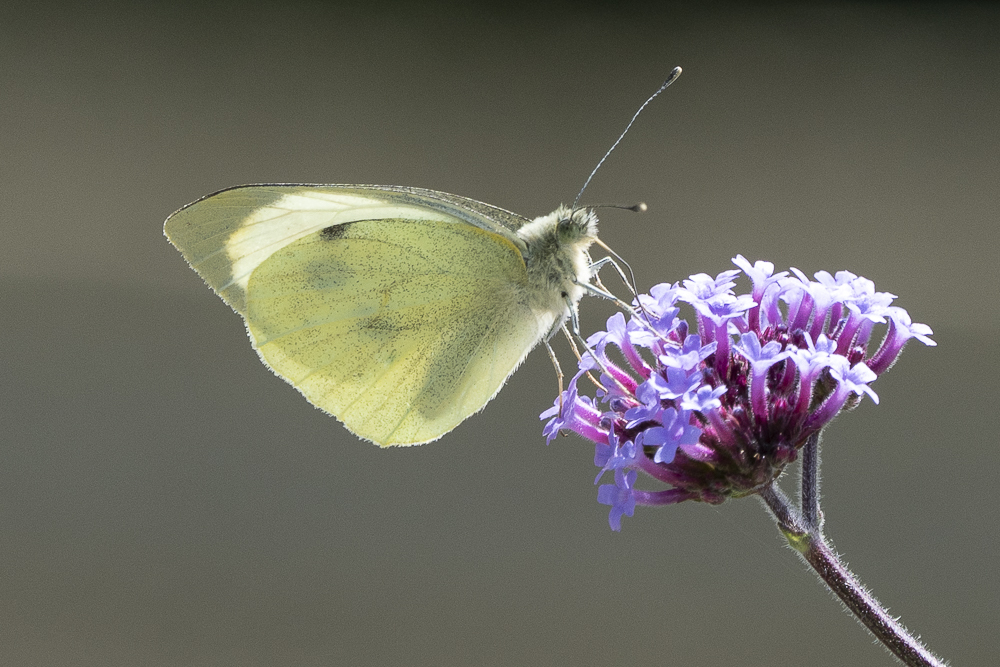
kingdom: Animalia
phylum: Arthropoda
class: Insecta
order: Lepidoptera
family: Pieridae
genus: Pieris
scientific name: Pieris brassicae
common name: Large white
